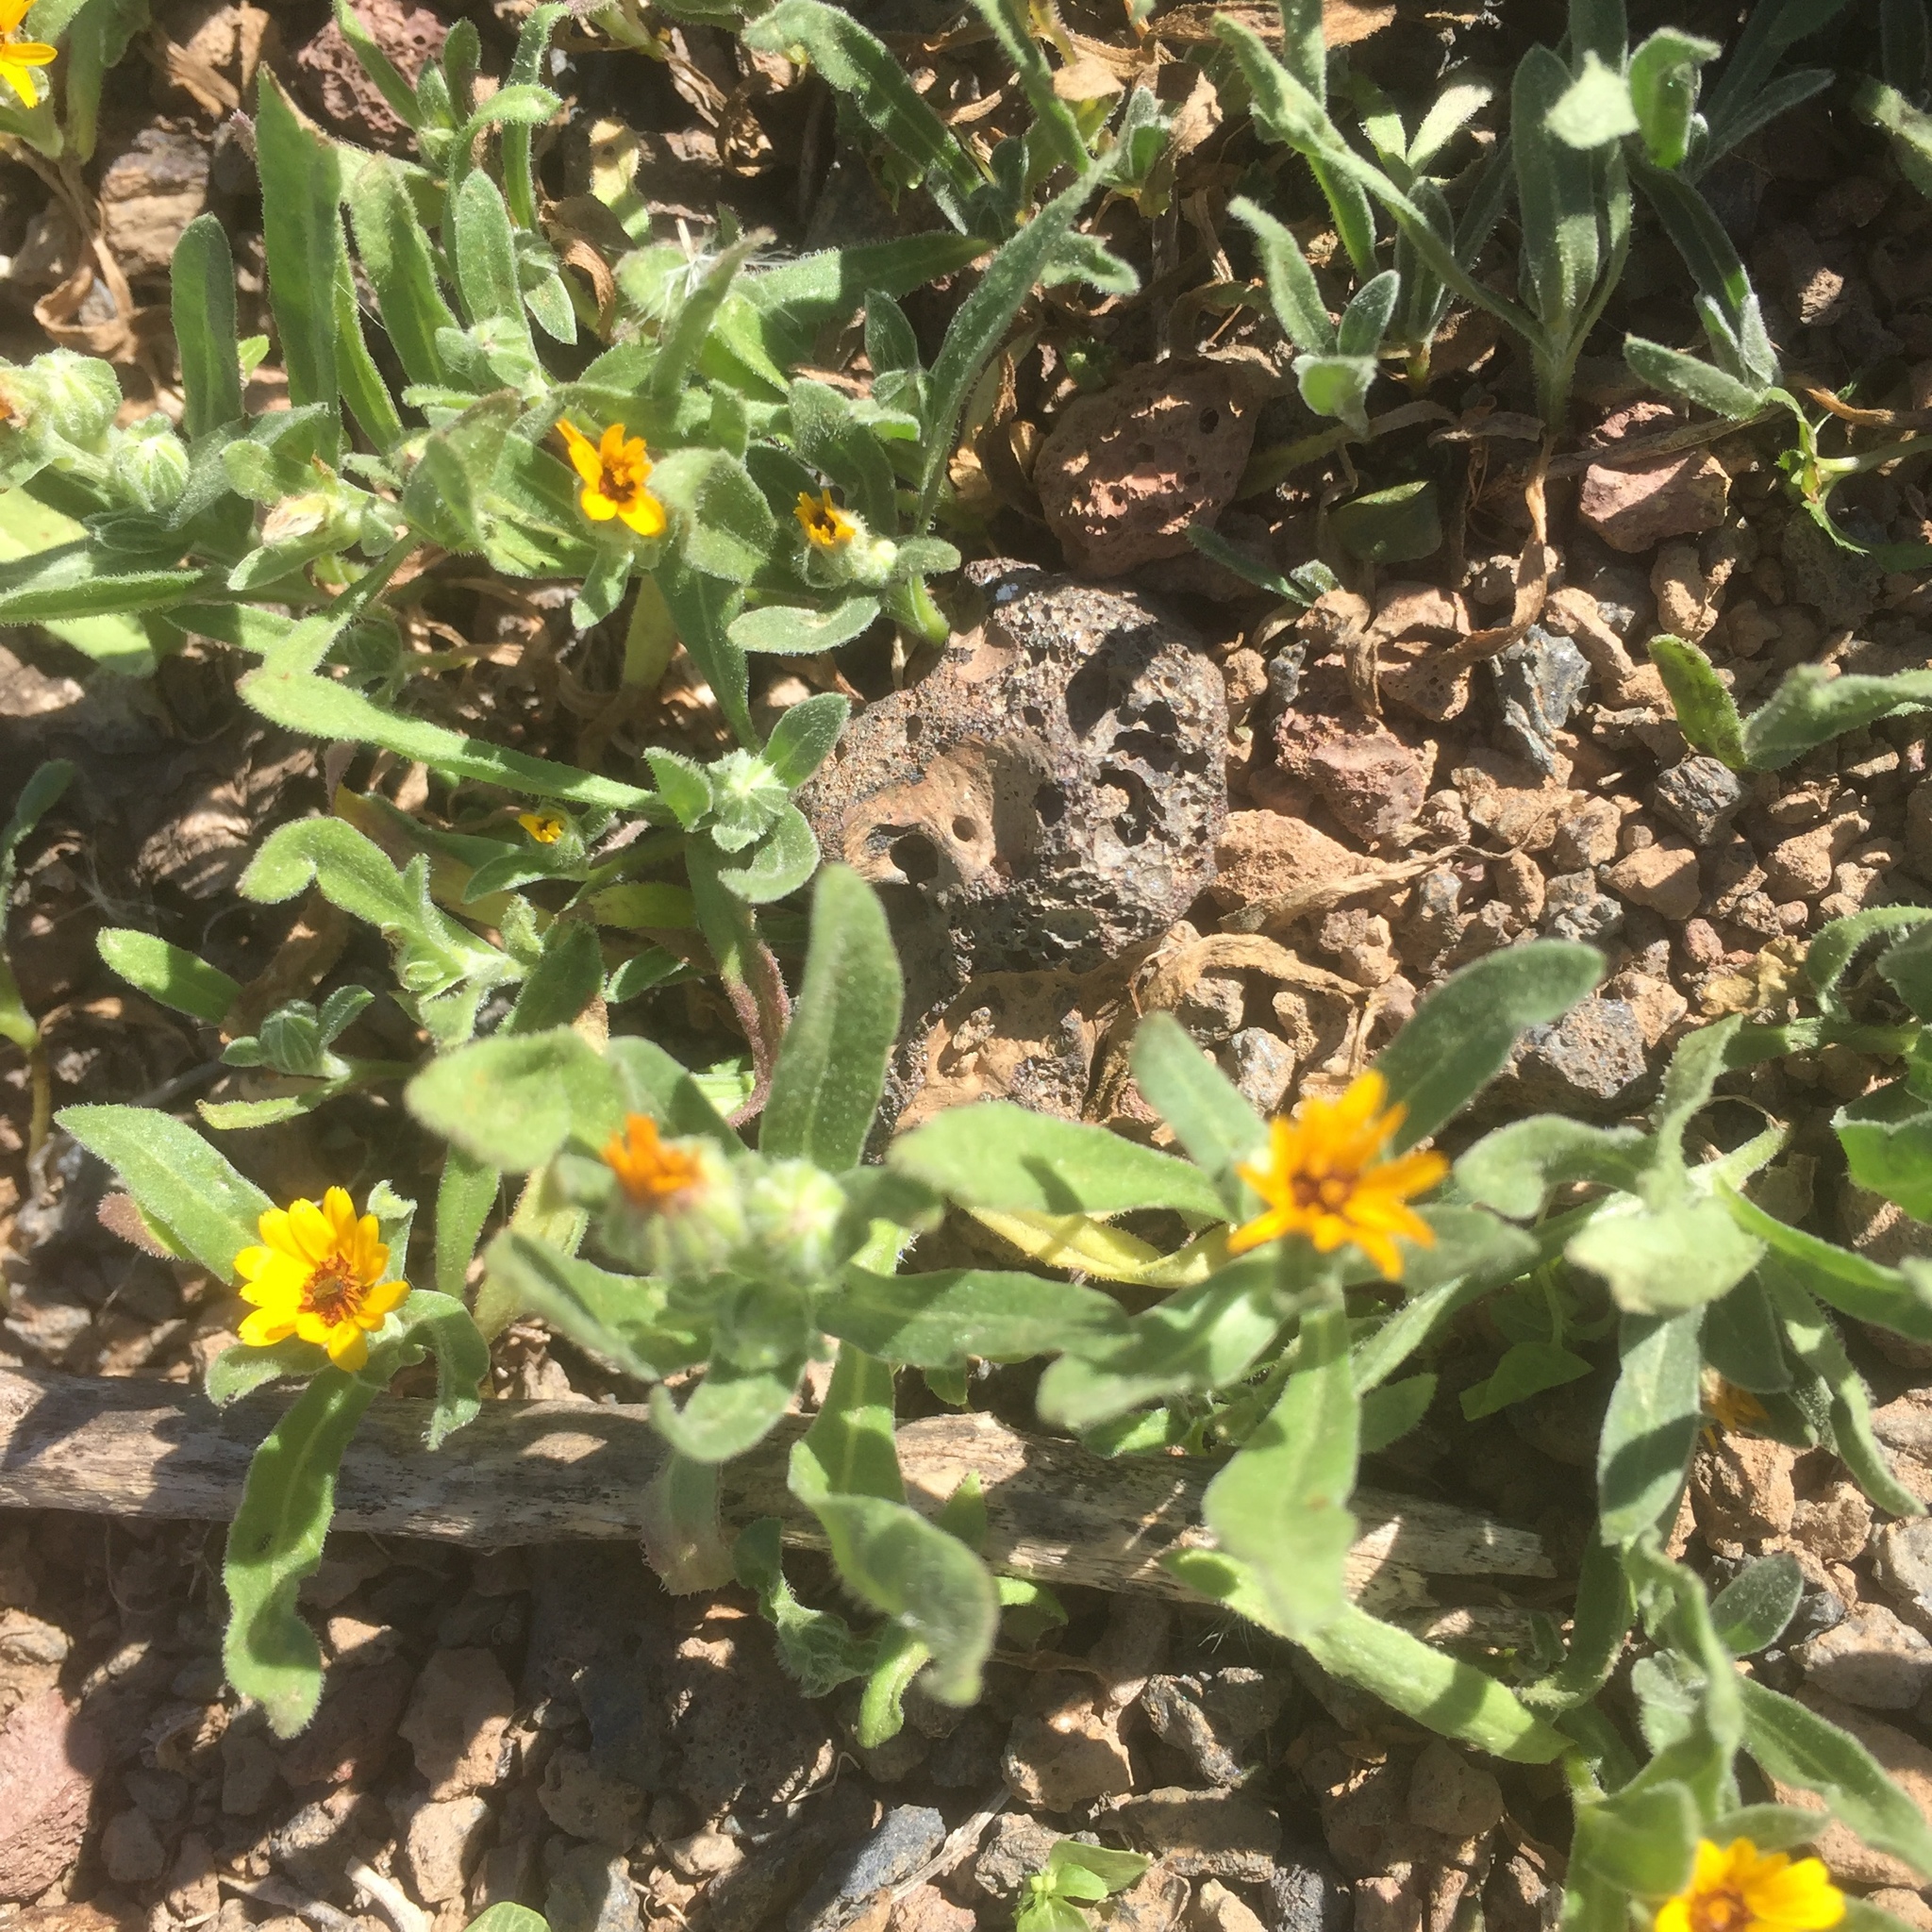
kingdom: Plantae
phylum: Tracheophyta
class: Magnoliopsida
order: Asterales
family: Asteraceae
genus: Calendula
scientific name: Calendula arvensis
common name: Field marigold
